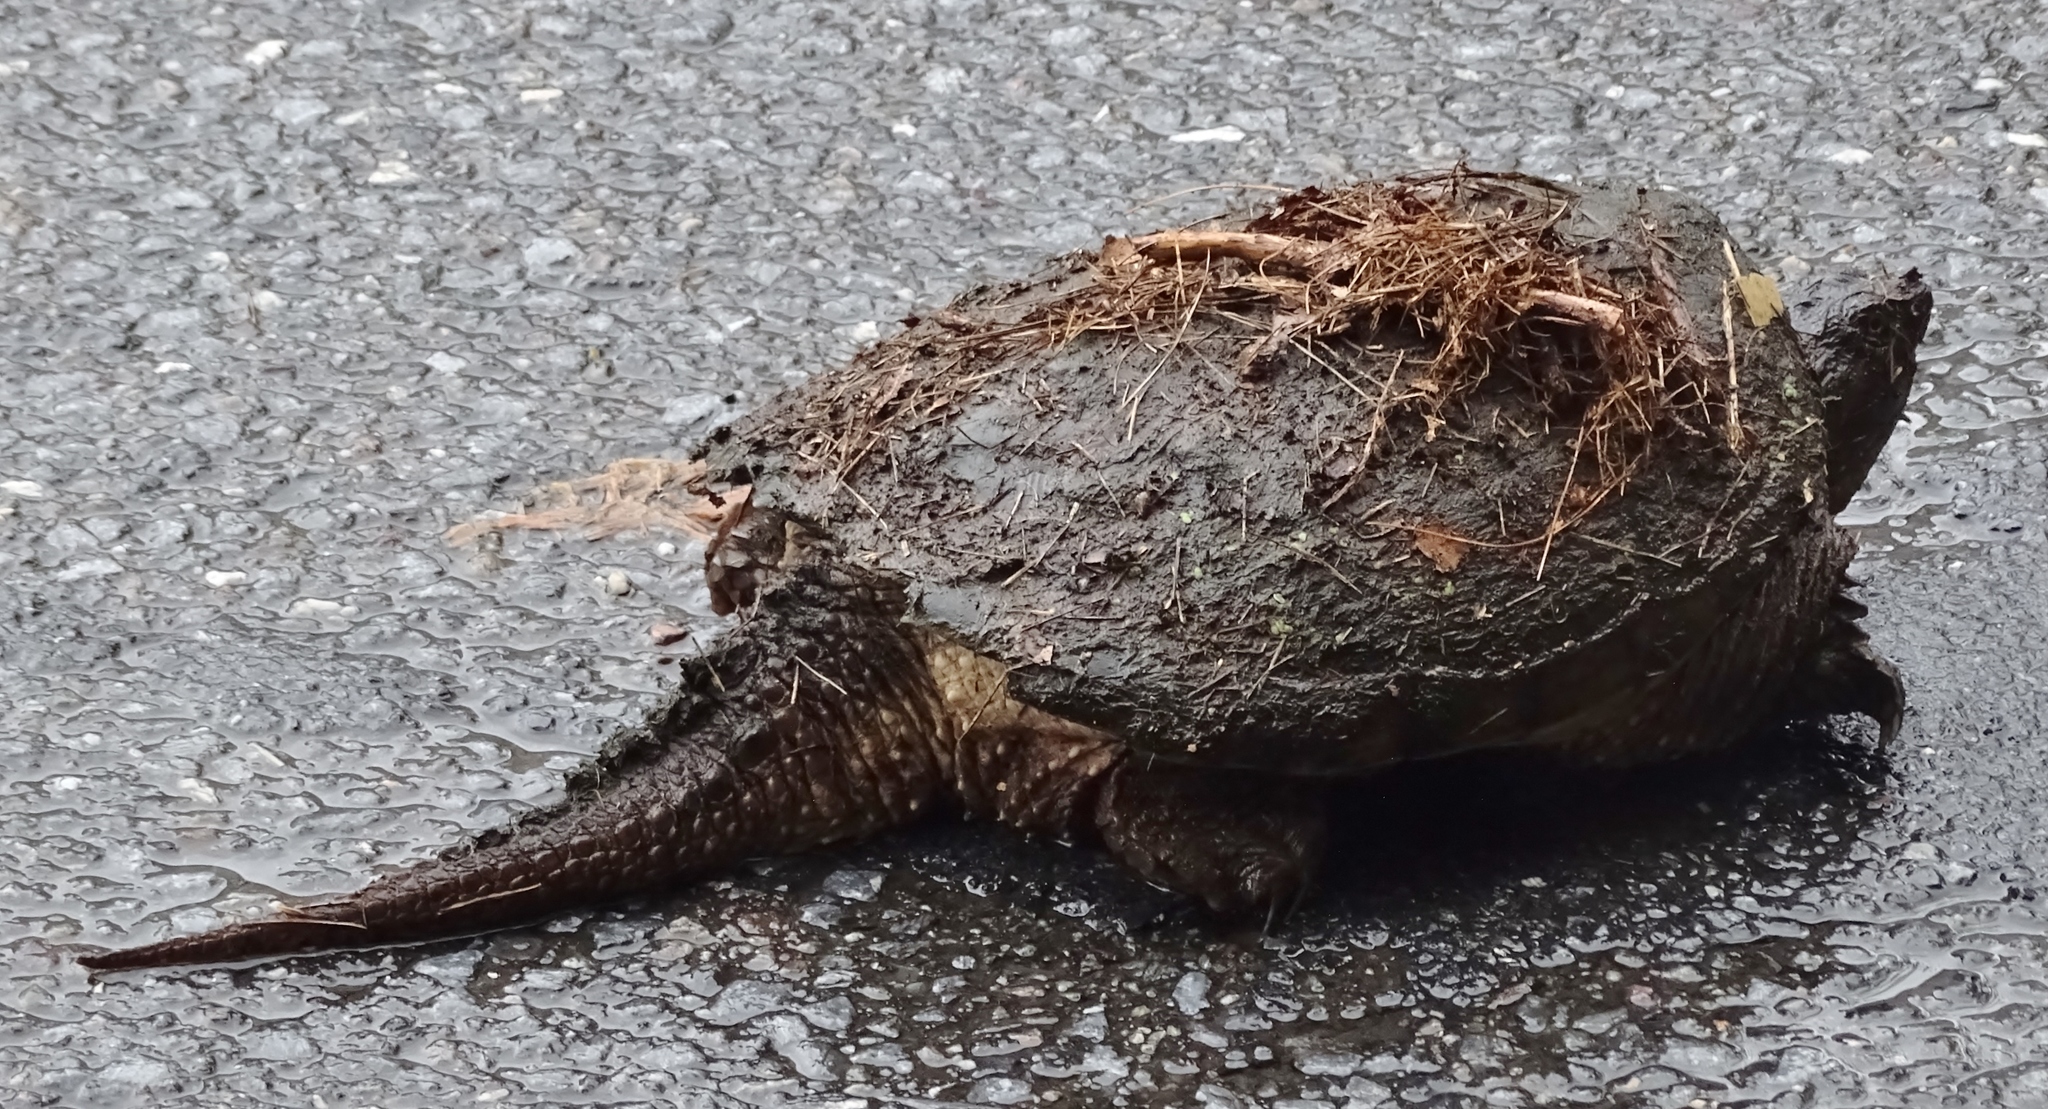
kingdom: Animalia
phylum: Chordata
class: Testudines
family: Chelydridae
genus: Chelydra
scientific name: Chelydra serpentina
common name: Common snapping turtle
